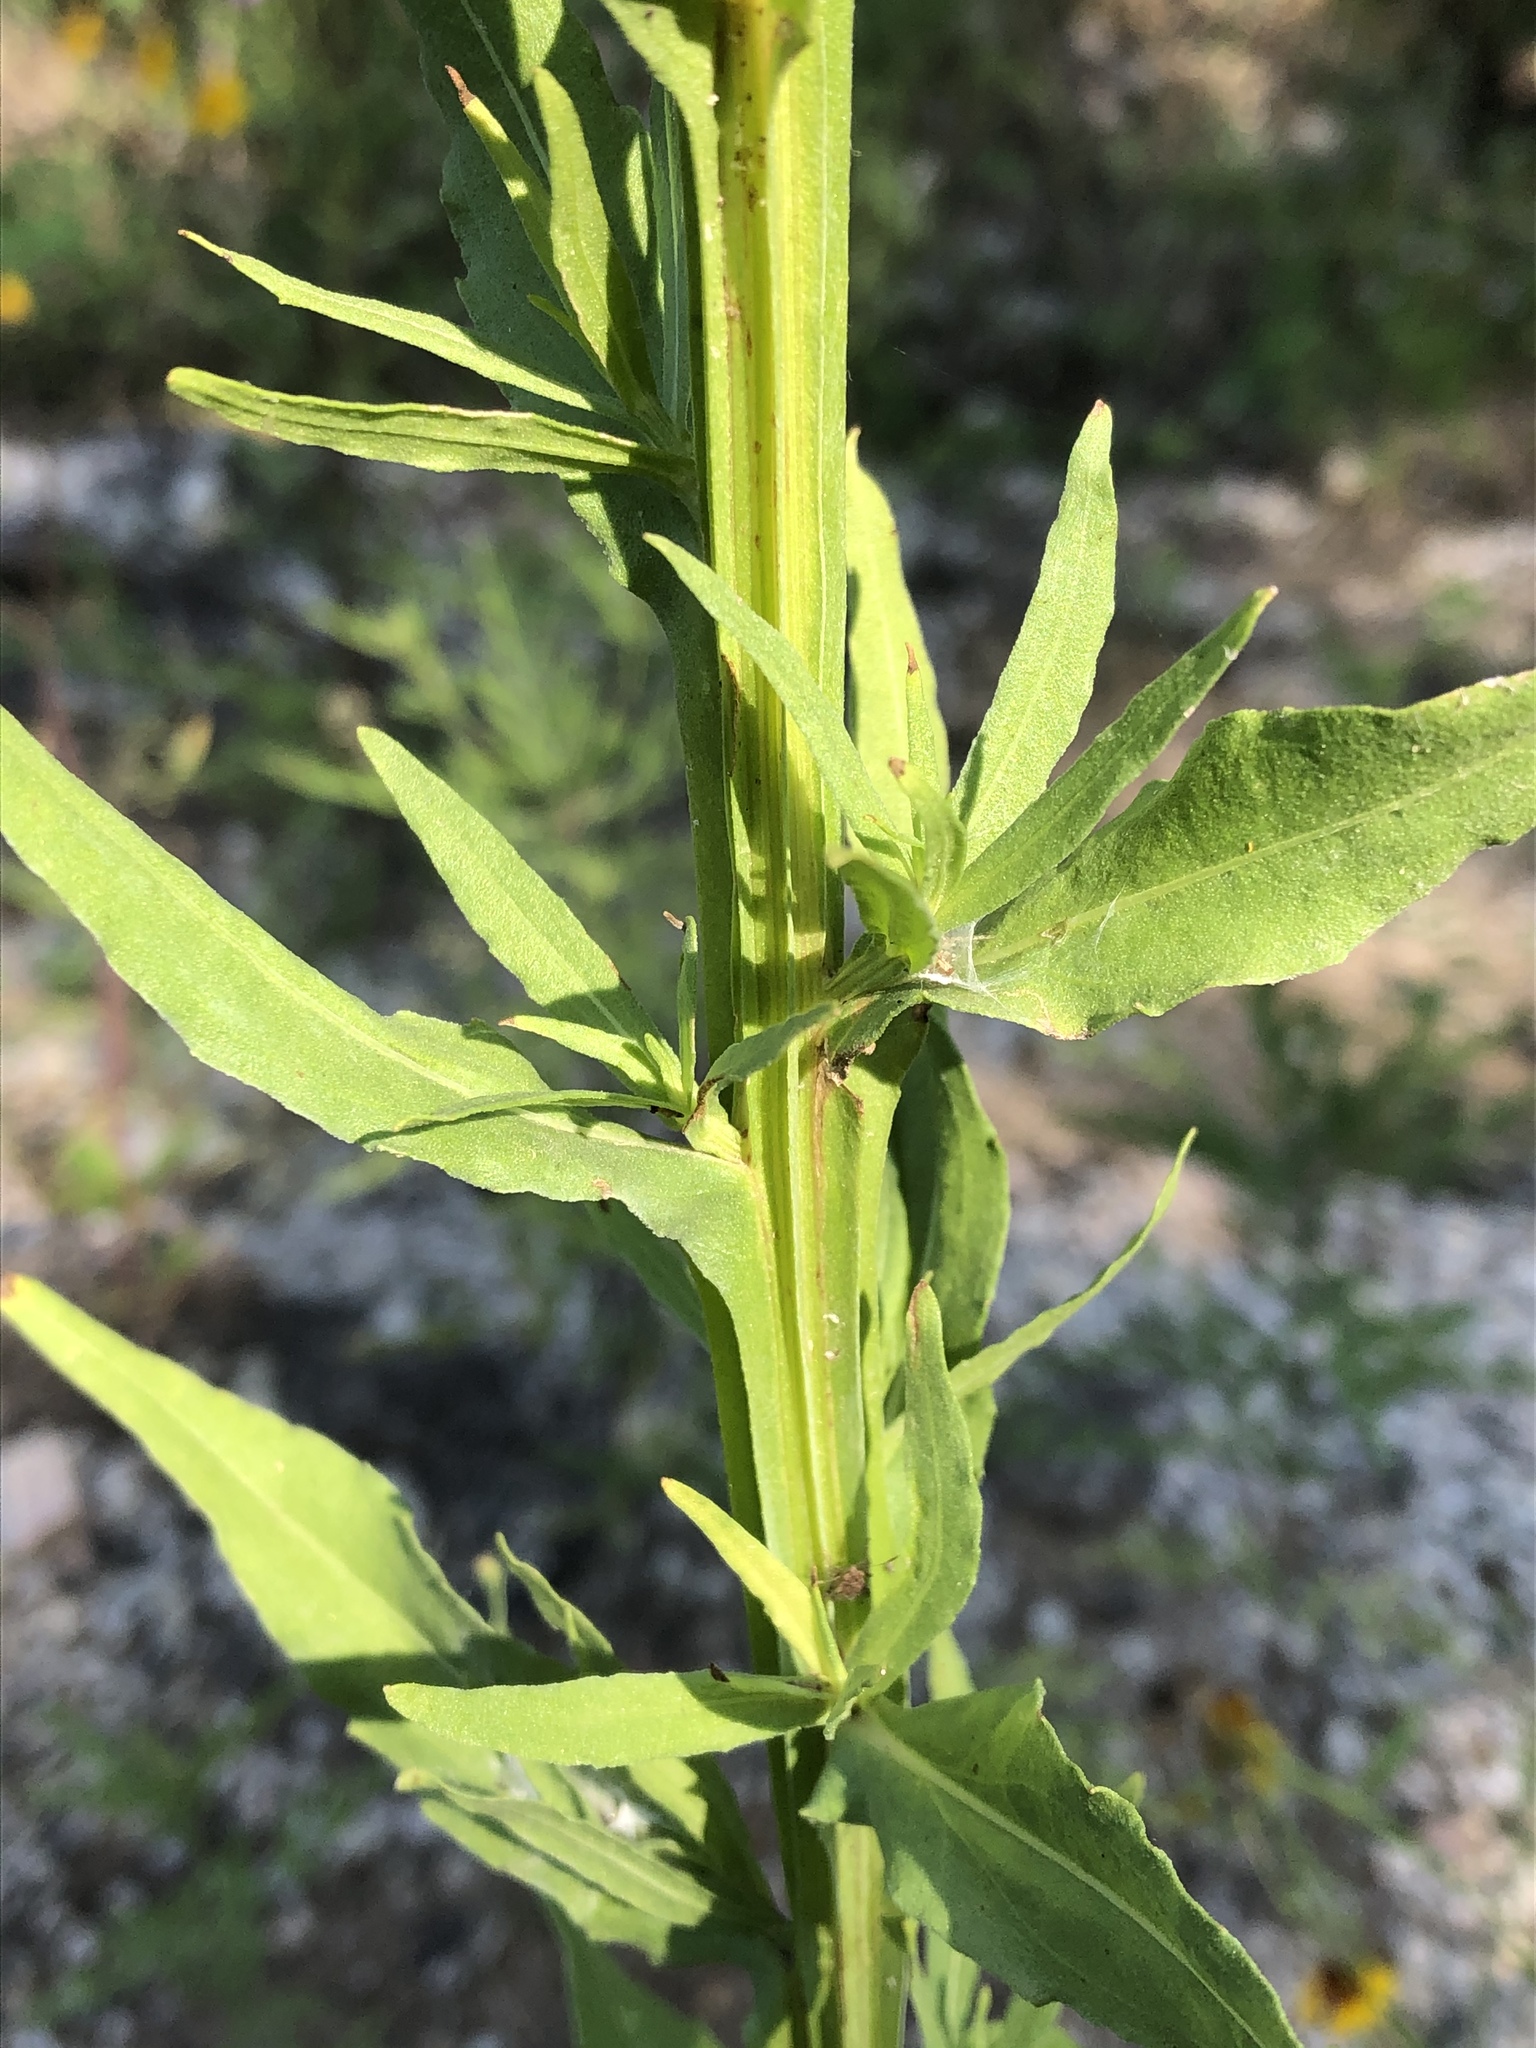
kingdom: Plantae
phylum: Tracheophyta
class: Magnoliopsida
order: Asterales
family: Asteraceae
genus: Helenium
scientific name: Helenium elegans
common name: Pretty sneezeweed
